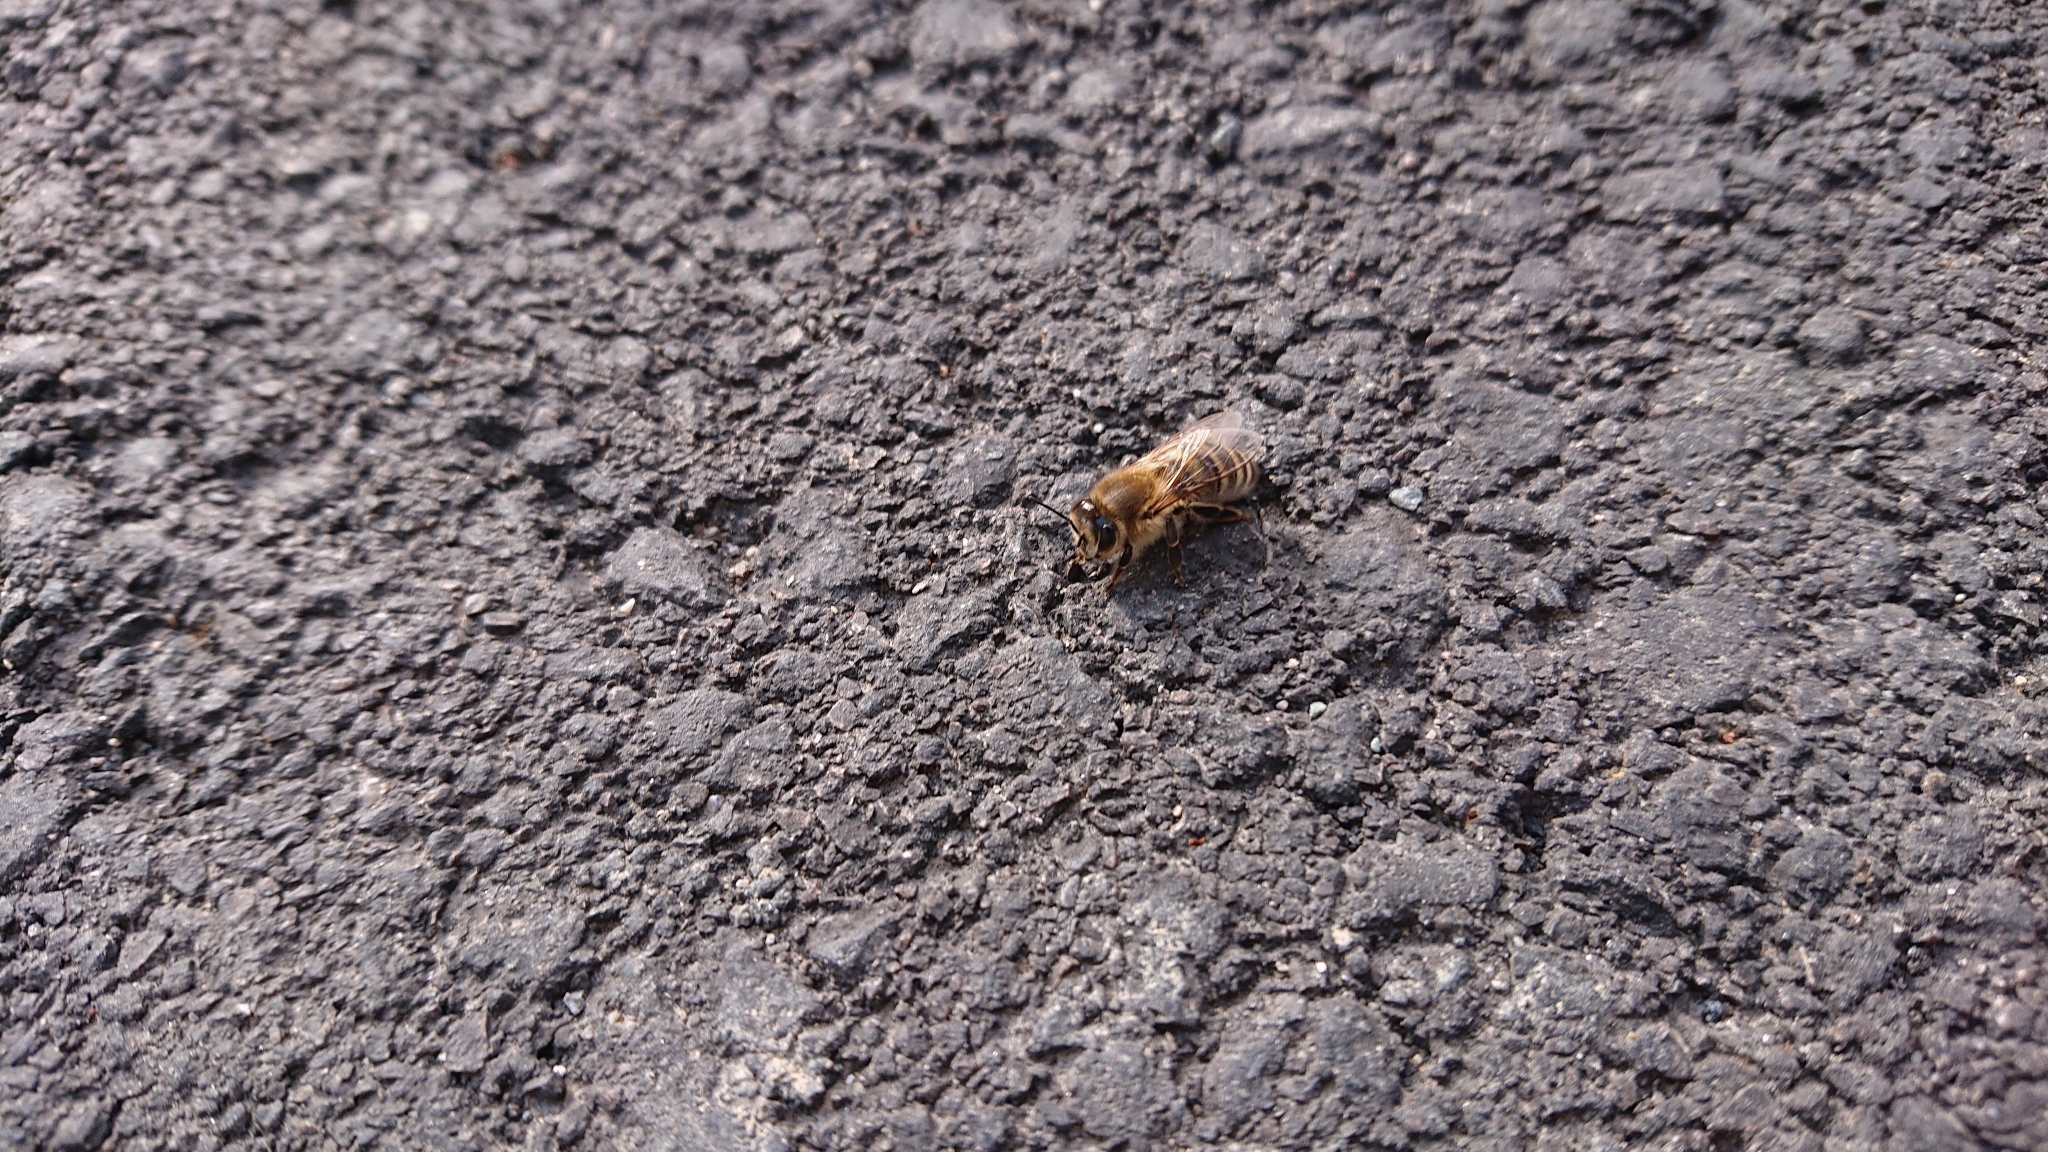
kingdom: Animalia
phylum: Arthropoda
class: Insecta
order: Hymenoptera
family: Apidae
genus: Apis
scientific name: Apis mellifera
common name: Honey bee
